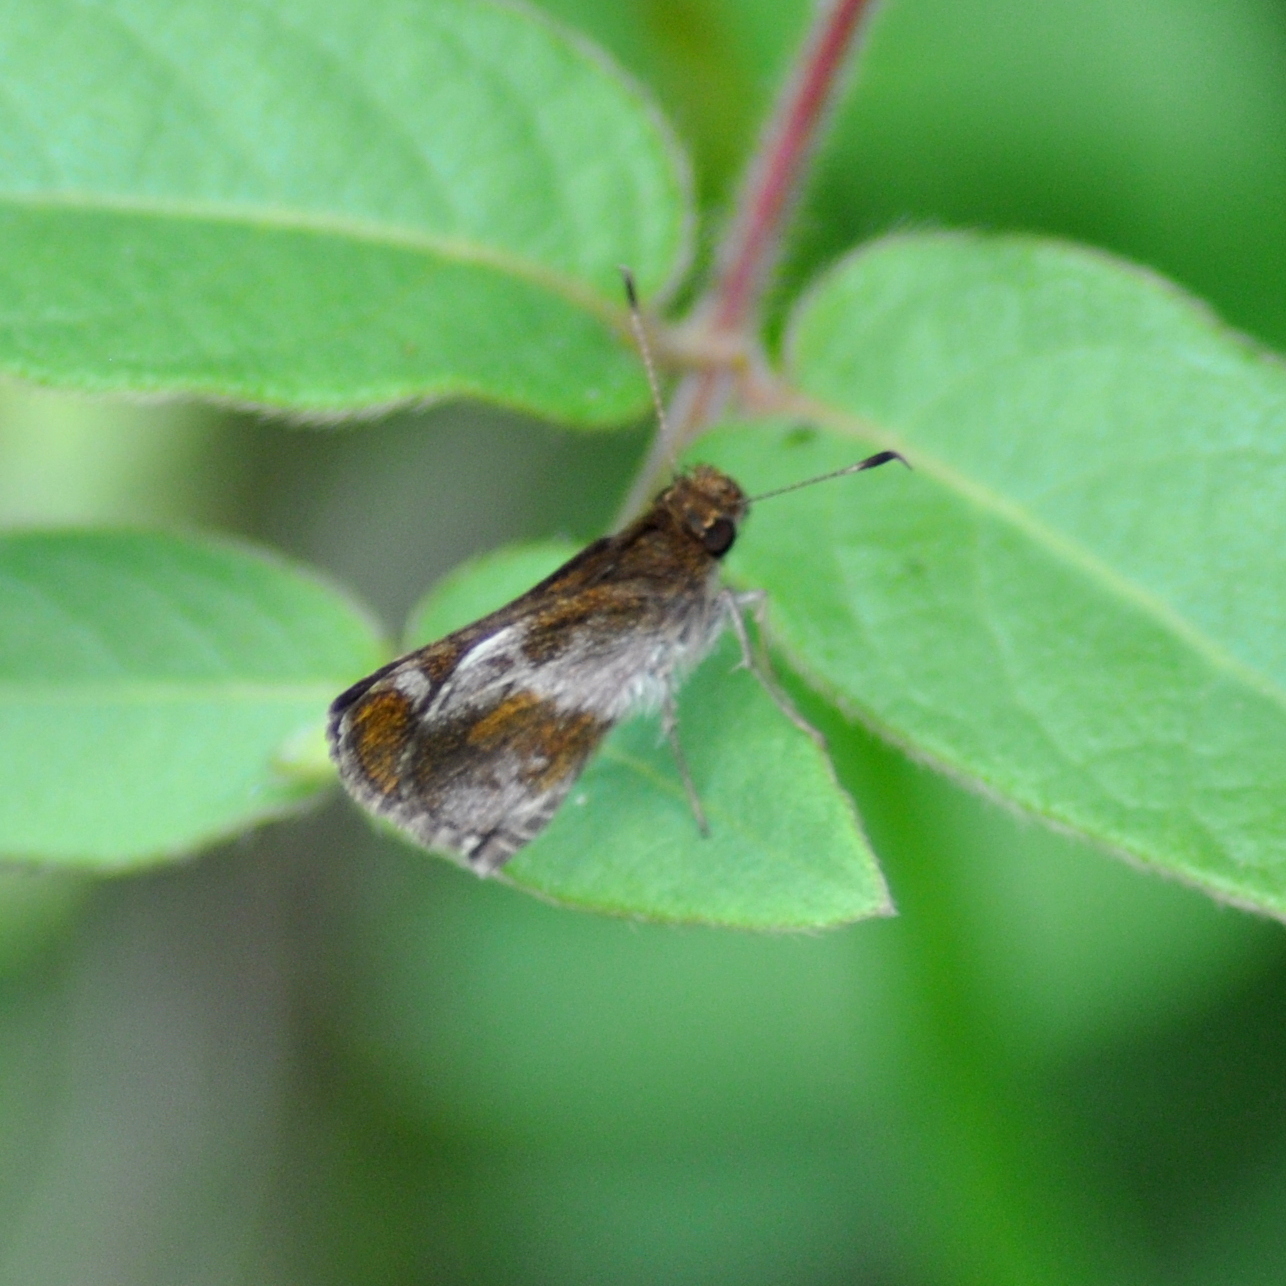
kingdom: Animalia
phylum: Arthropoda
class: Insecta
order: Lepidoptera
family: Hesperiidae
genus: Callimormus
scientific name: Callimormus
